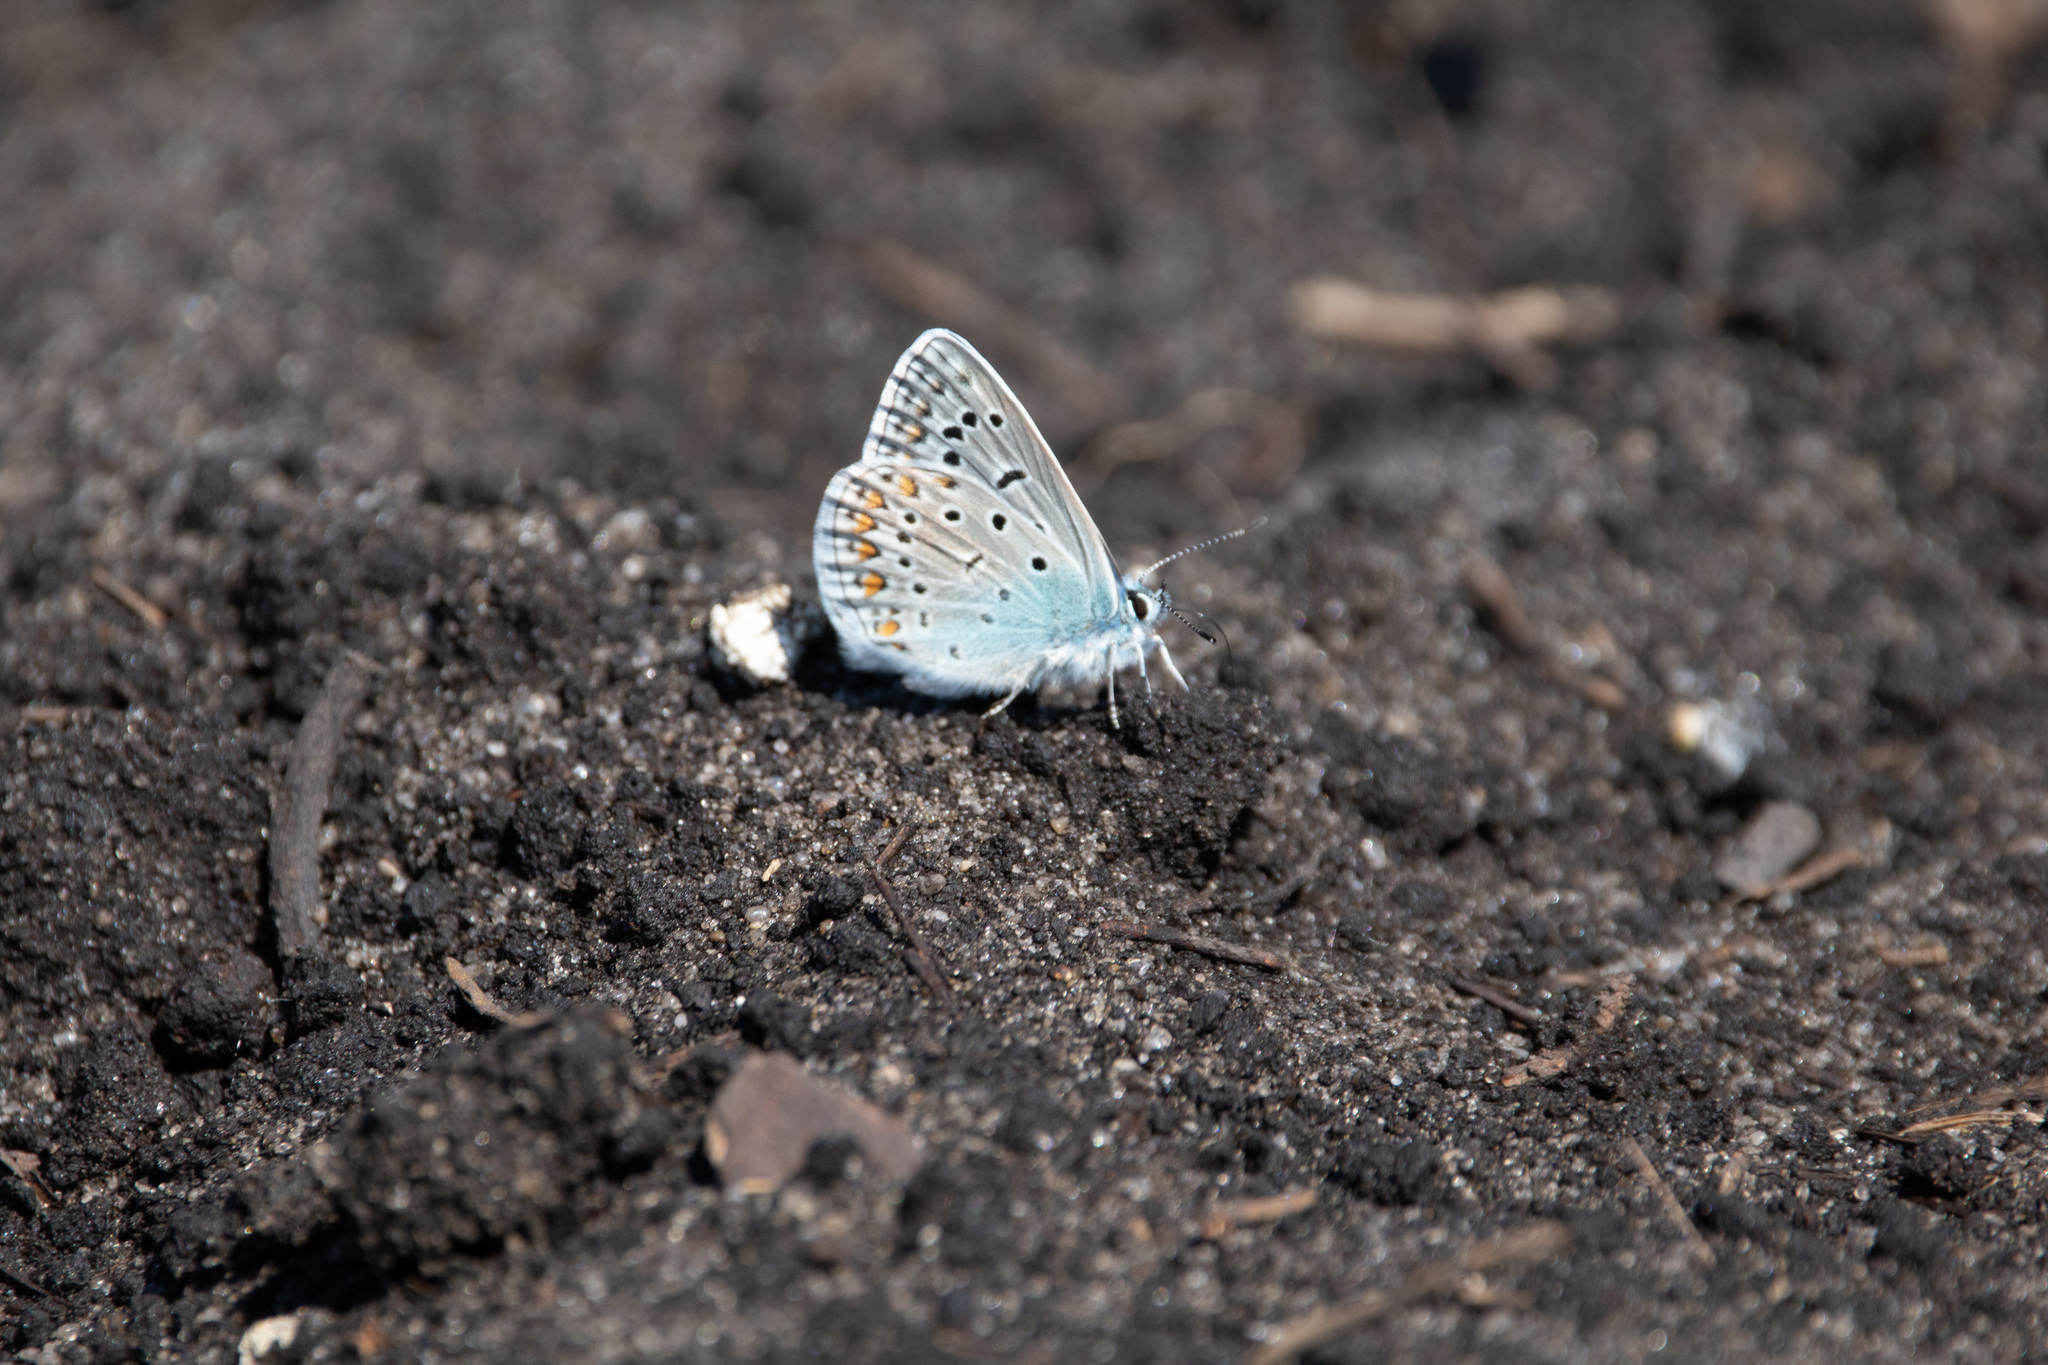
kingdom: Animalia
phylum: Arthropoda
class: Insecta
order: Lepidoptera
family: Lycaenidae
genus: Polyommatus
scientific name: Polyommatus icarus
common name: Common blue
